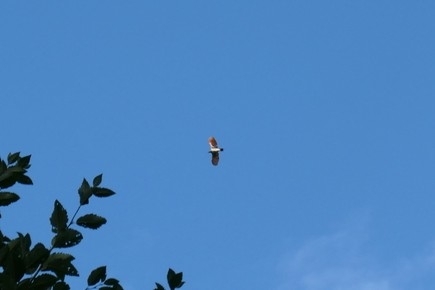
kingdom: Animalia
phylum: Chordata
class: Aves
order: Piciformes
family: Picidae
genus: Colaptes
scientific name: Colaptes auratus
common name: Northern flicker
